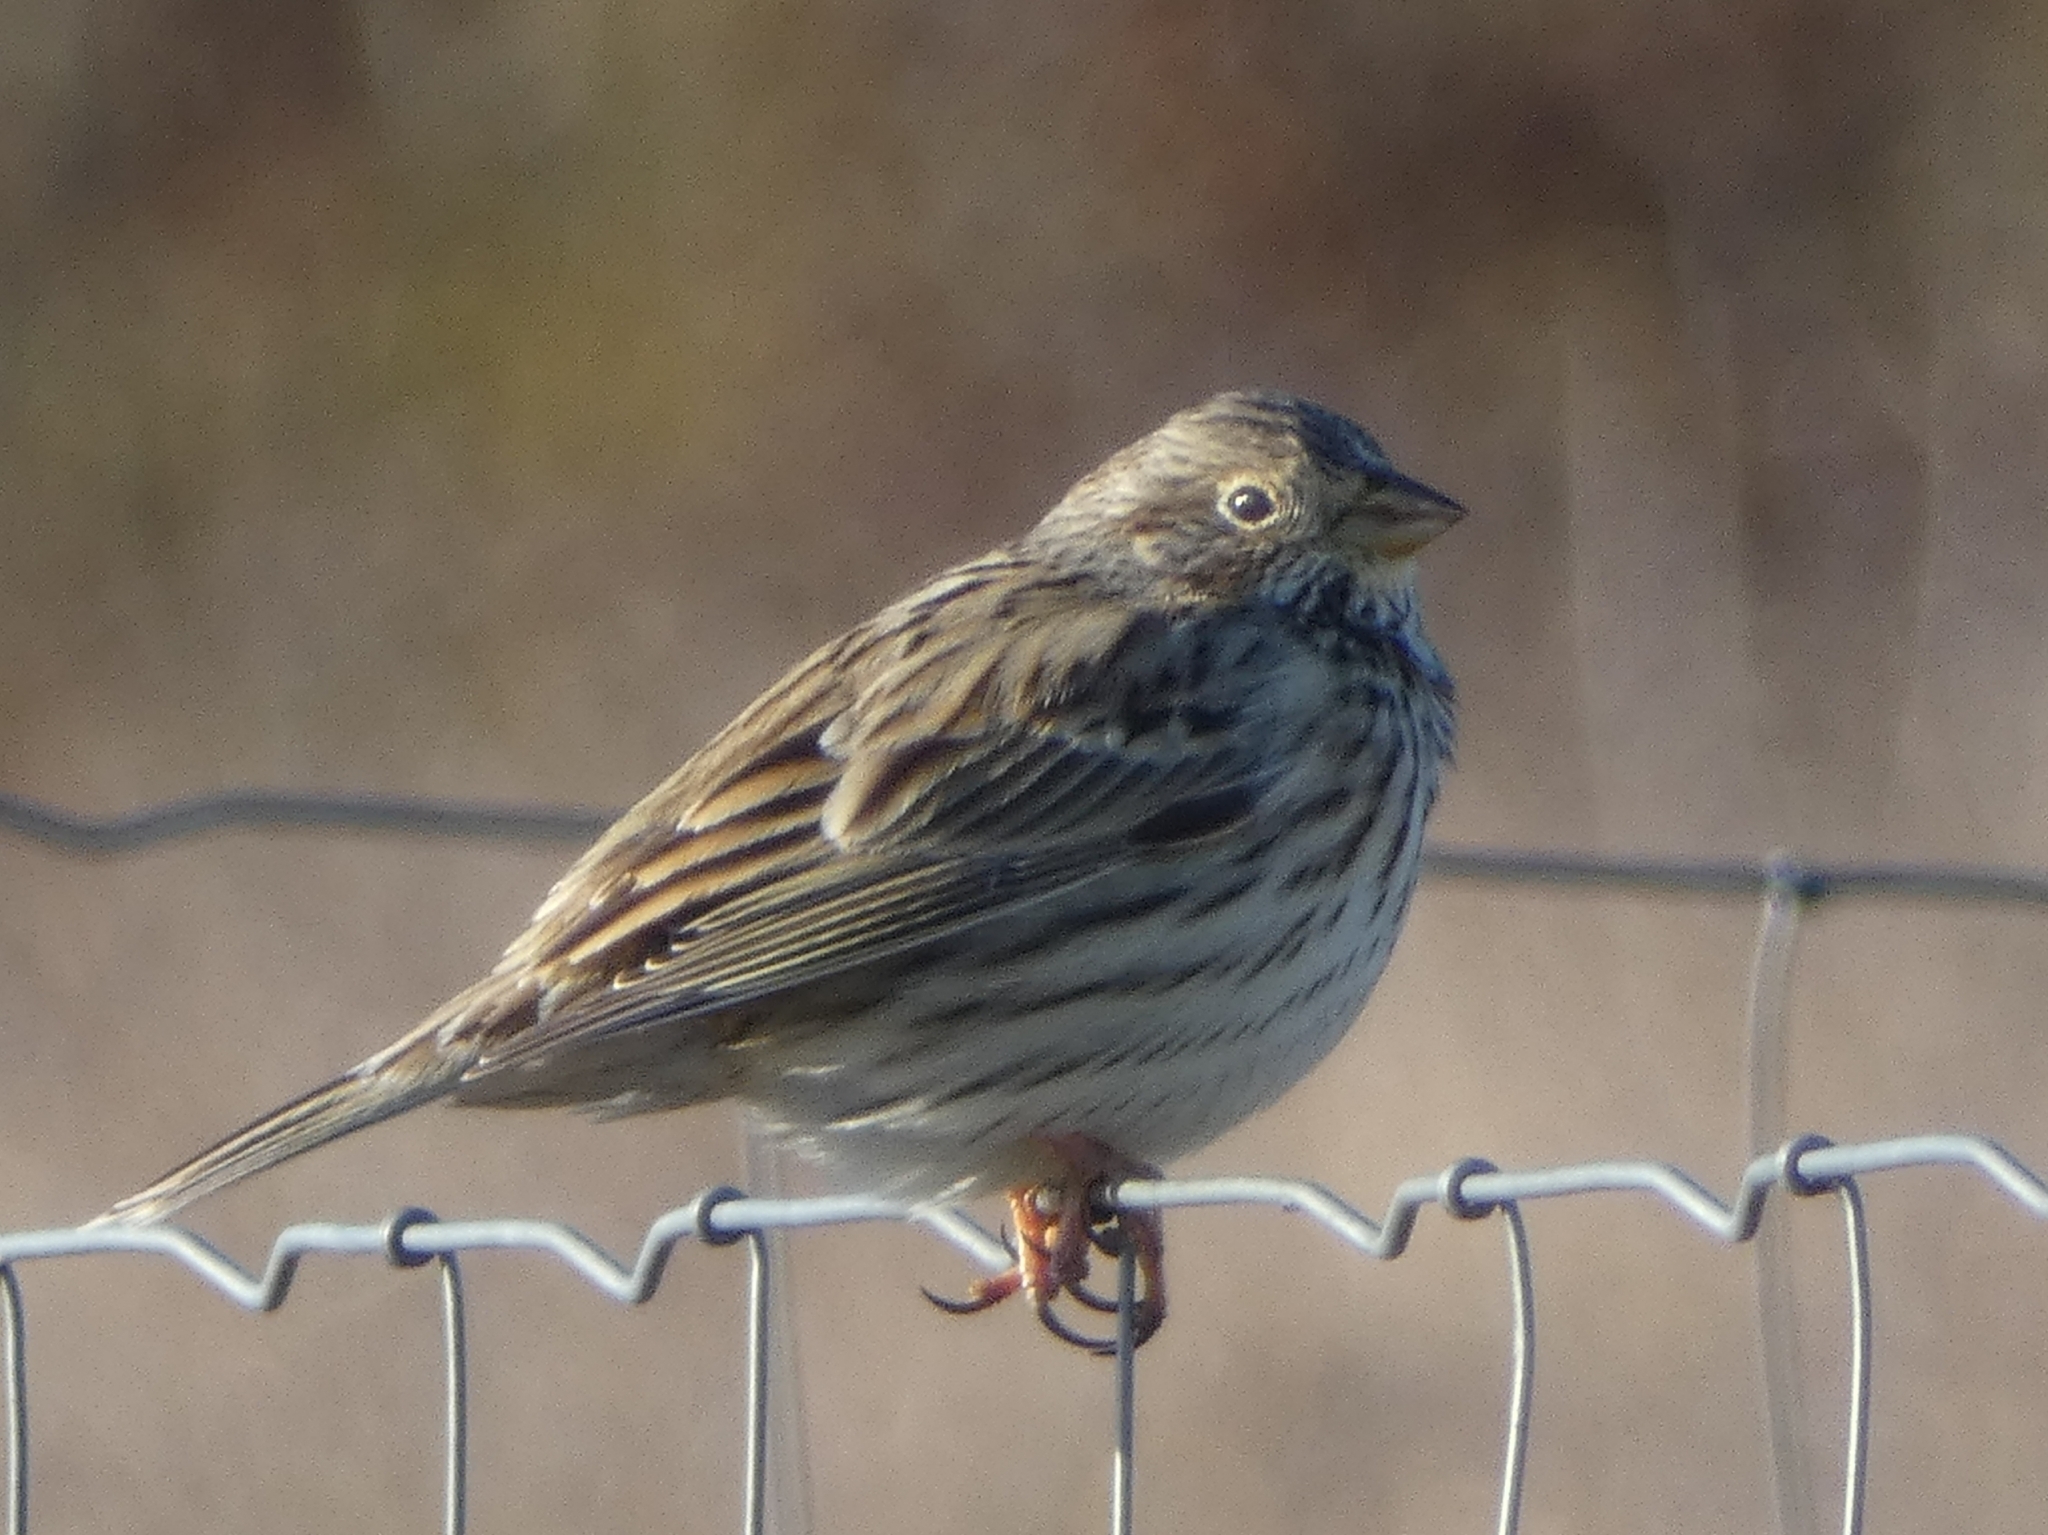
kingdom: Animalia
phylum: Chordata
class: Aves
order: Passeriformes
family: Emberizidae
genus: Emberiza
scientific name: Emberiza calandra
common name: Corn bunting
